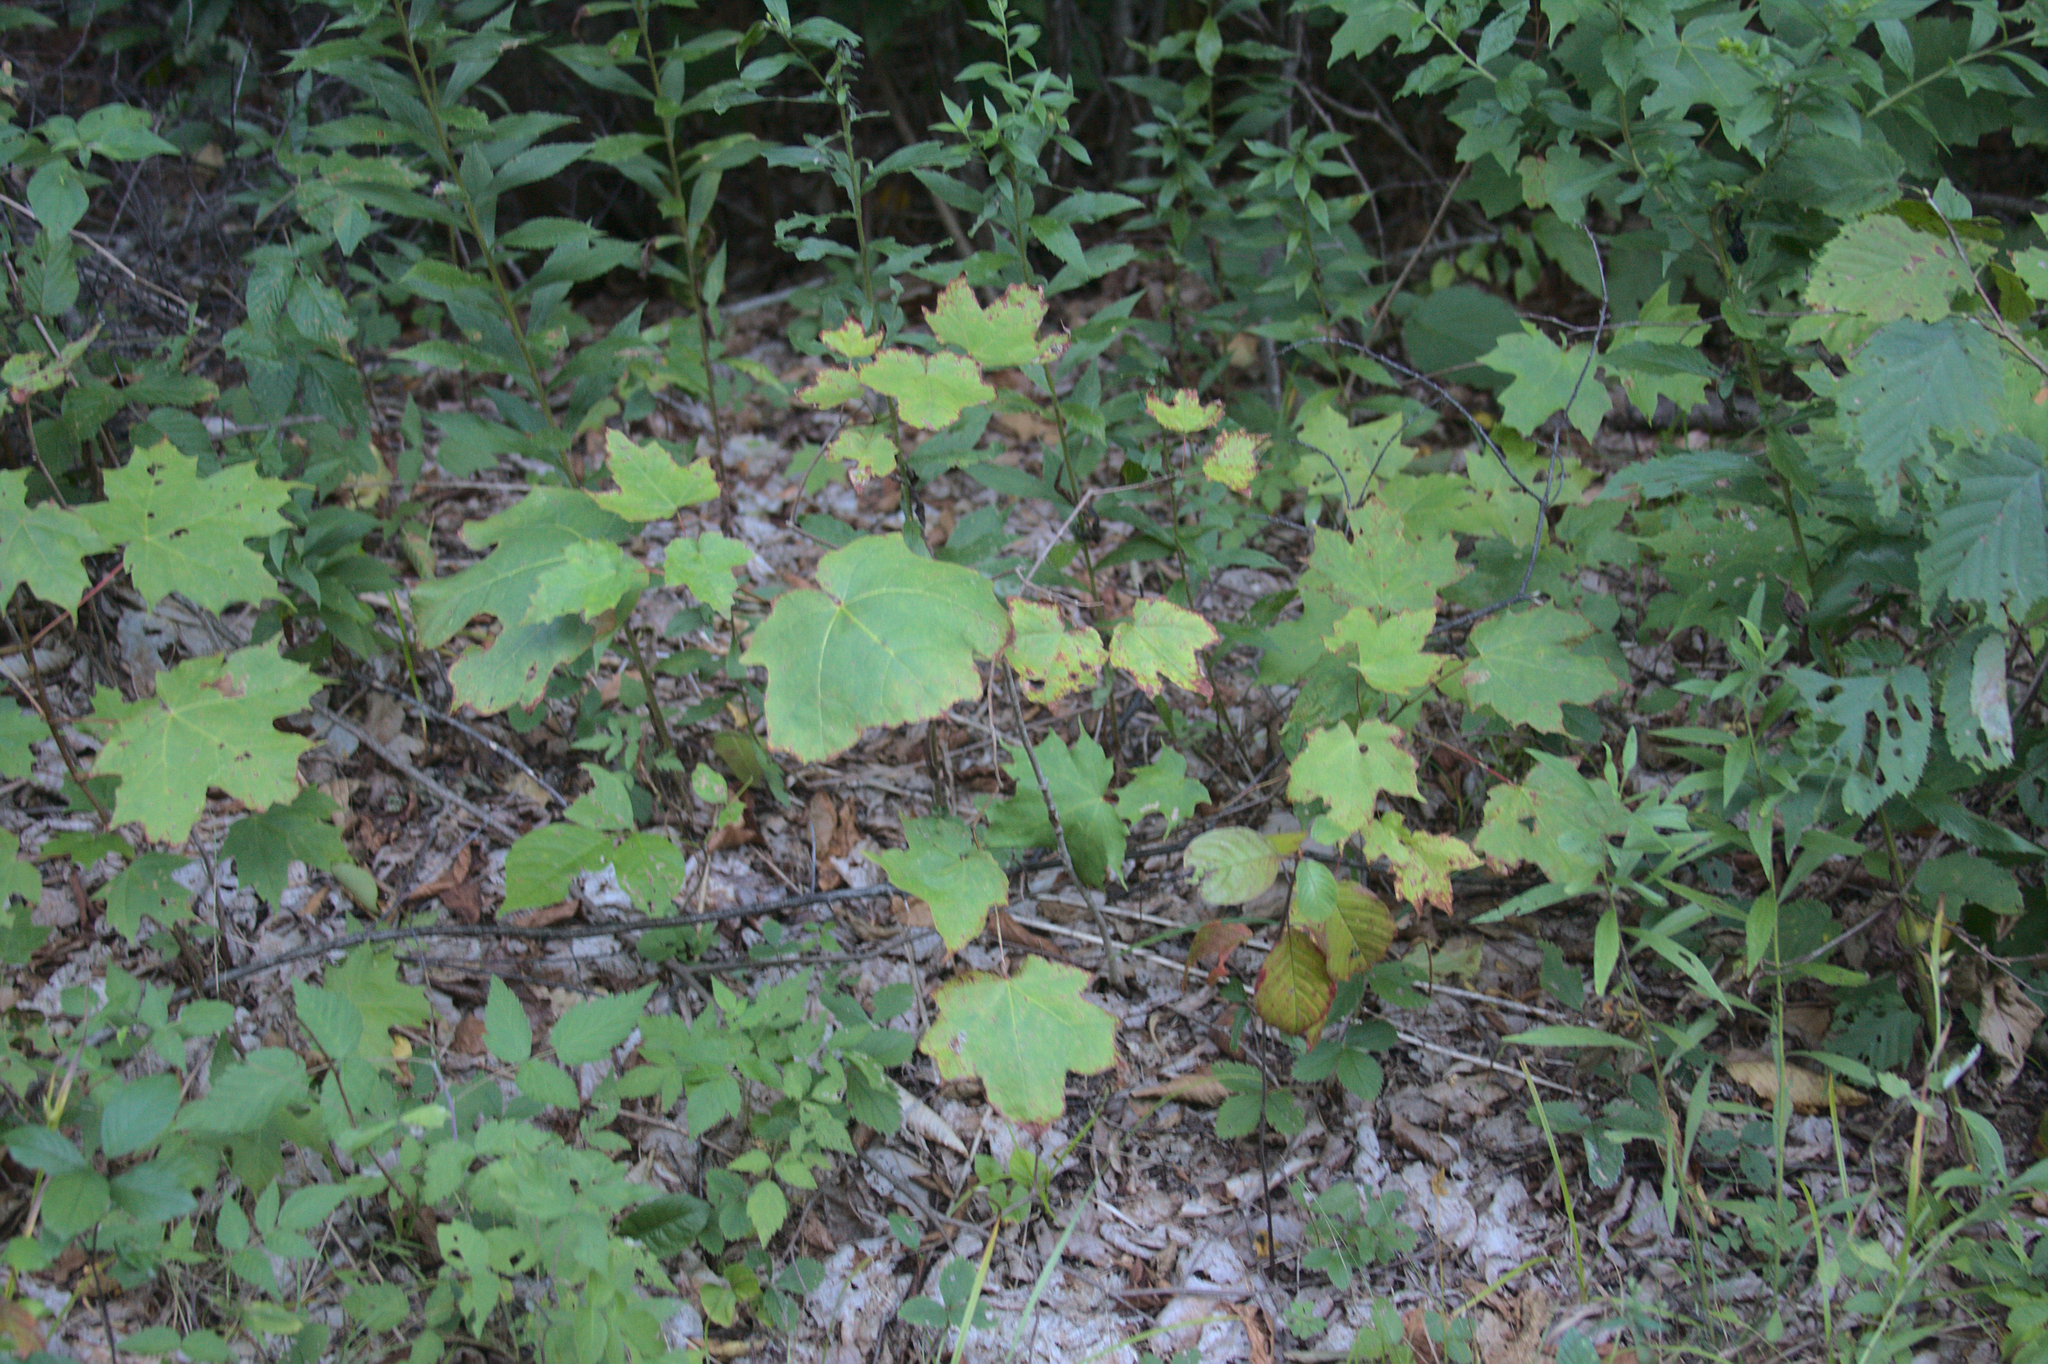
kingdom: Plantae
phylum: Tracheophyta
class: Magnoliopsida
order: Sapindales
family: Sapindaceae
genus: Acer
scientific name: Acer saccharum
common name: Sugar maple
